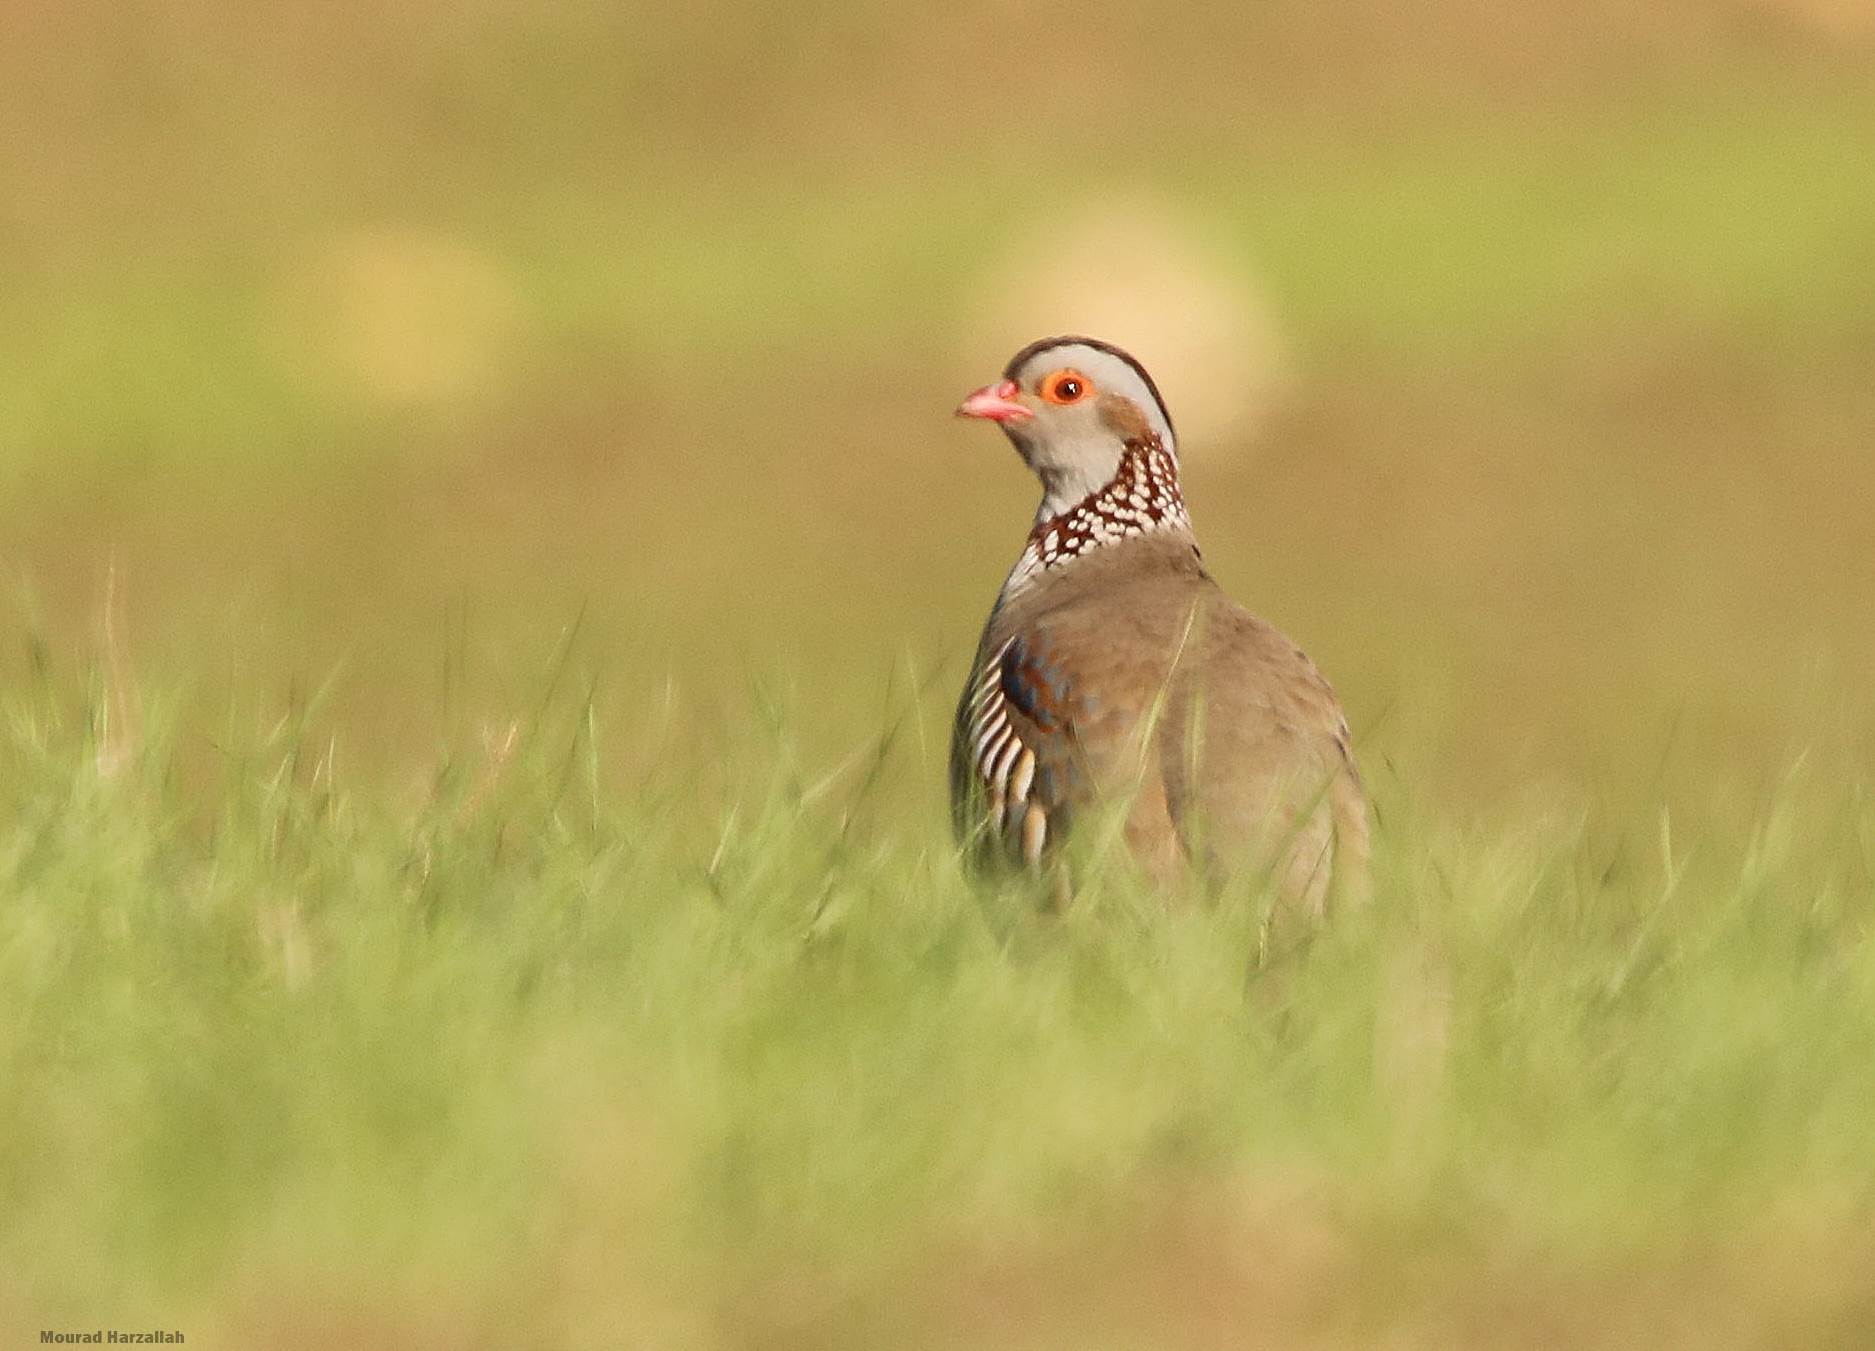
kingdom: Animalia
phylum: Chordata
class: Aves
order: Galliformes
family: Phasianidae
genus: Alectoris
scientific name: Alectoris barbara
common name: Barbary partridge
